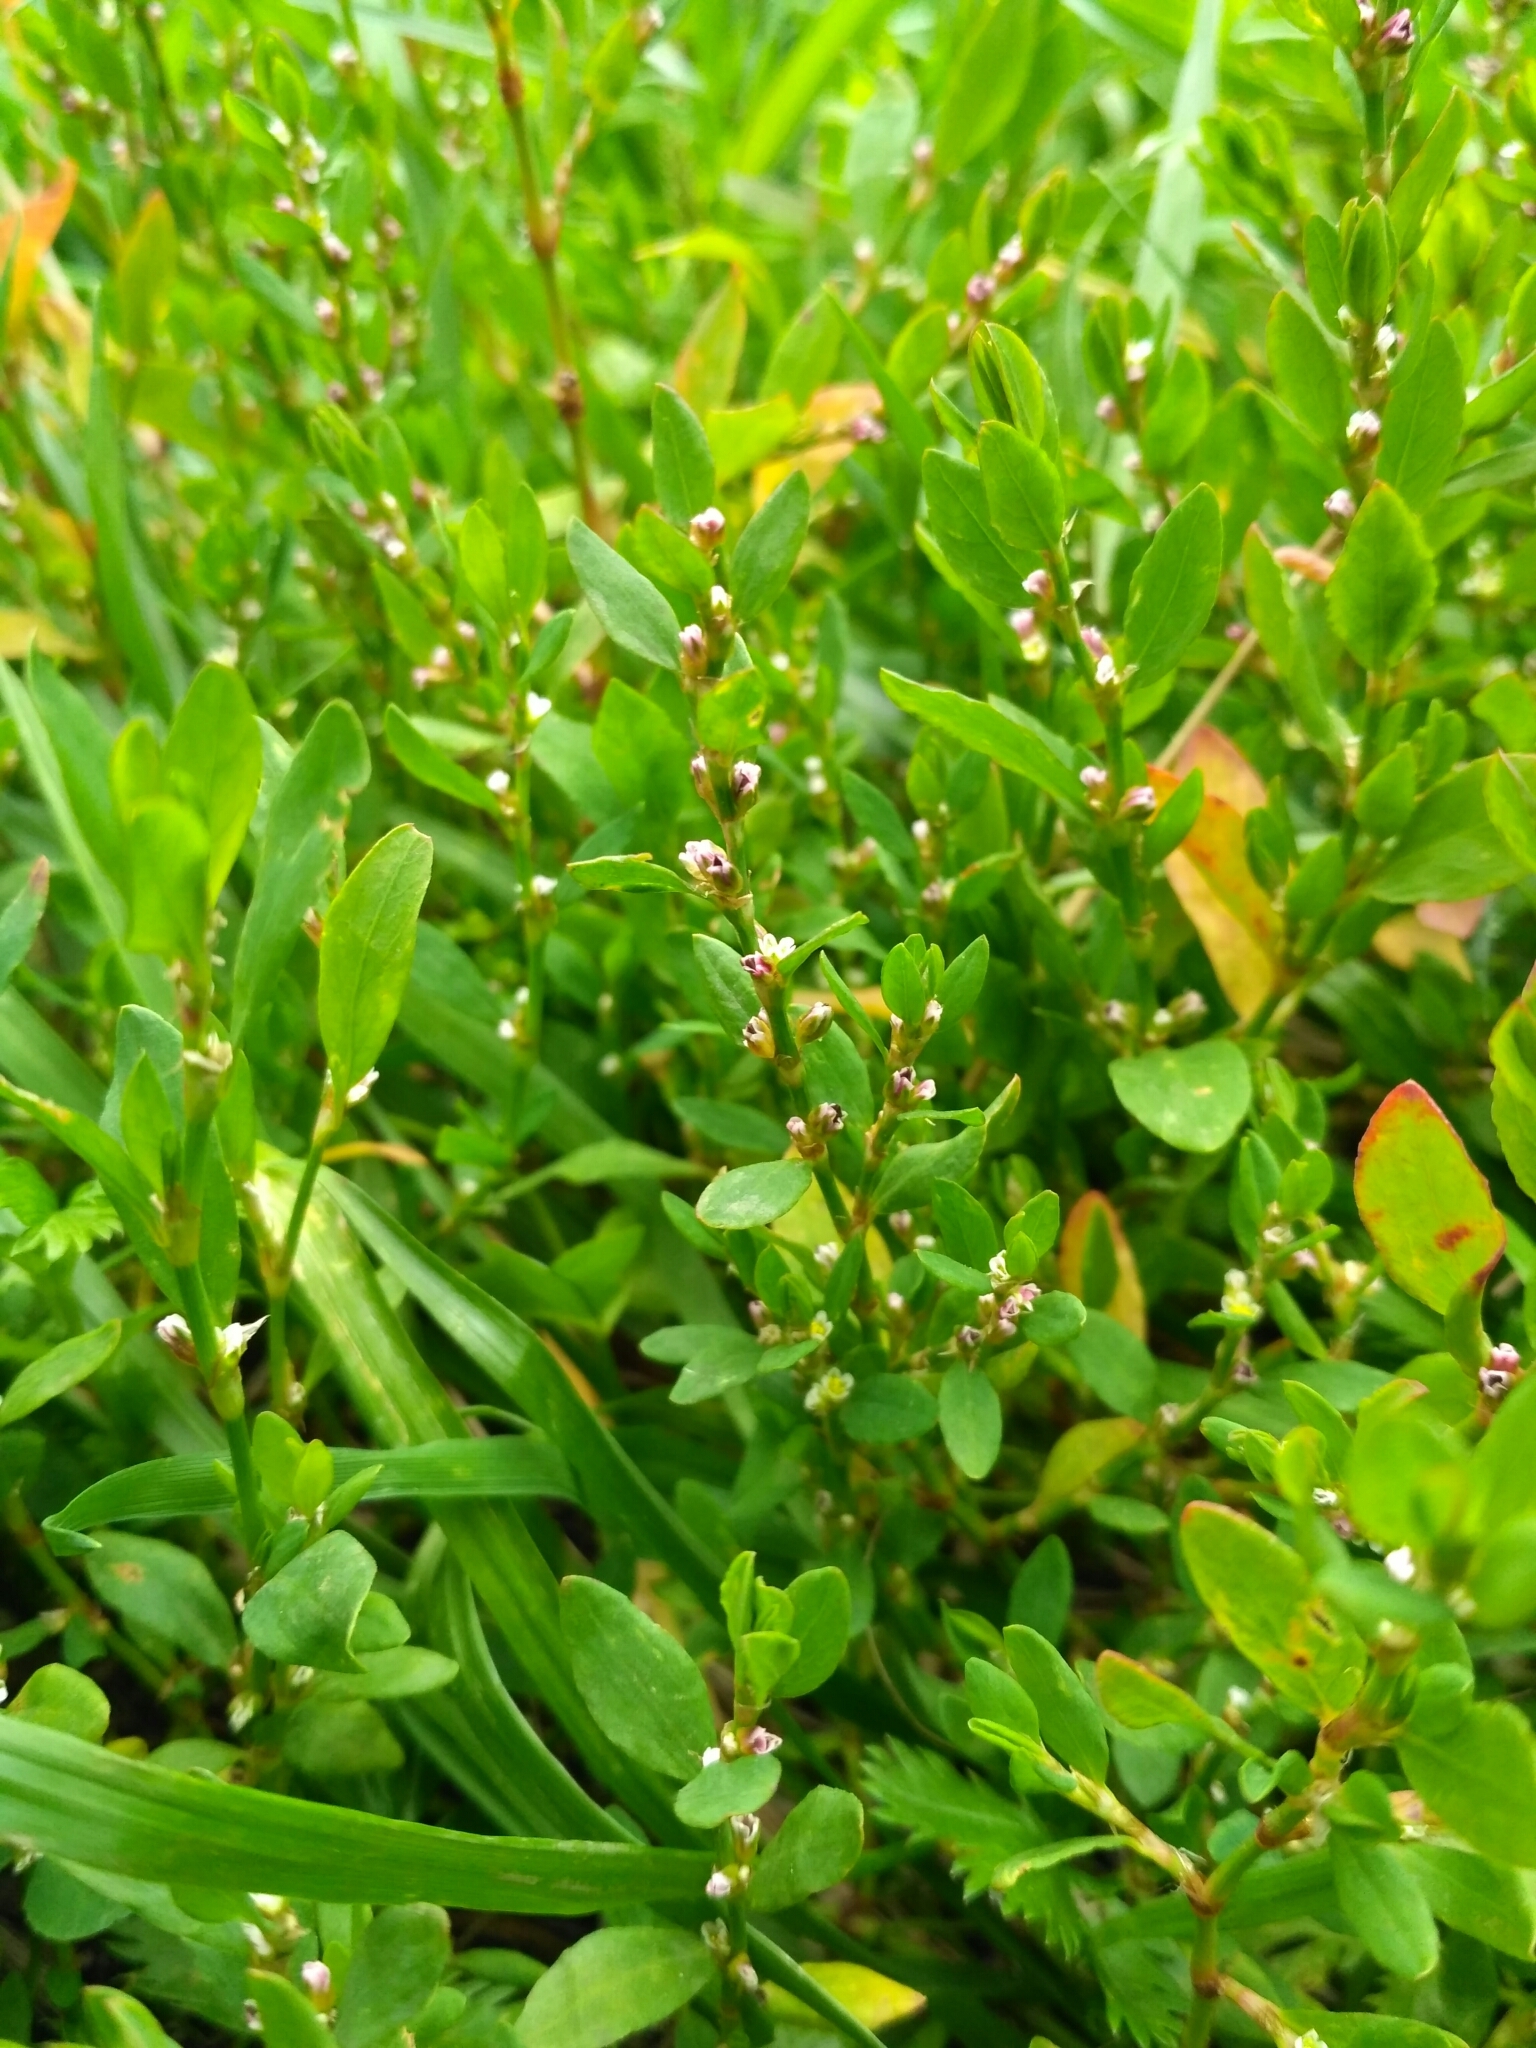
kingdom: Plantae
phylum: Tracheophyta
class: Magnoliopsida
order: Caryophyllales
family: Polygonaceae
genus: Polygonum
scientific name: Polygonum
